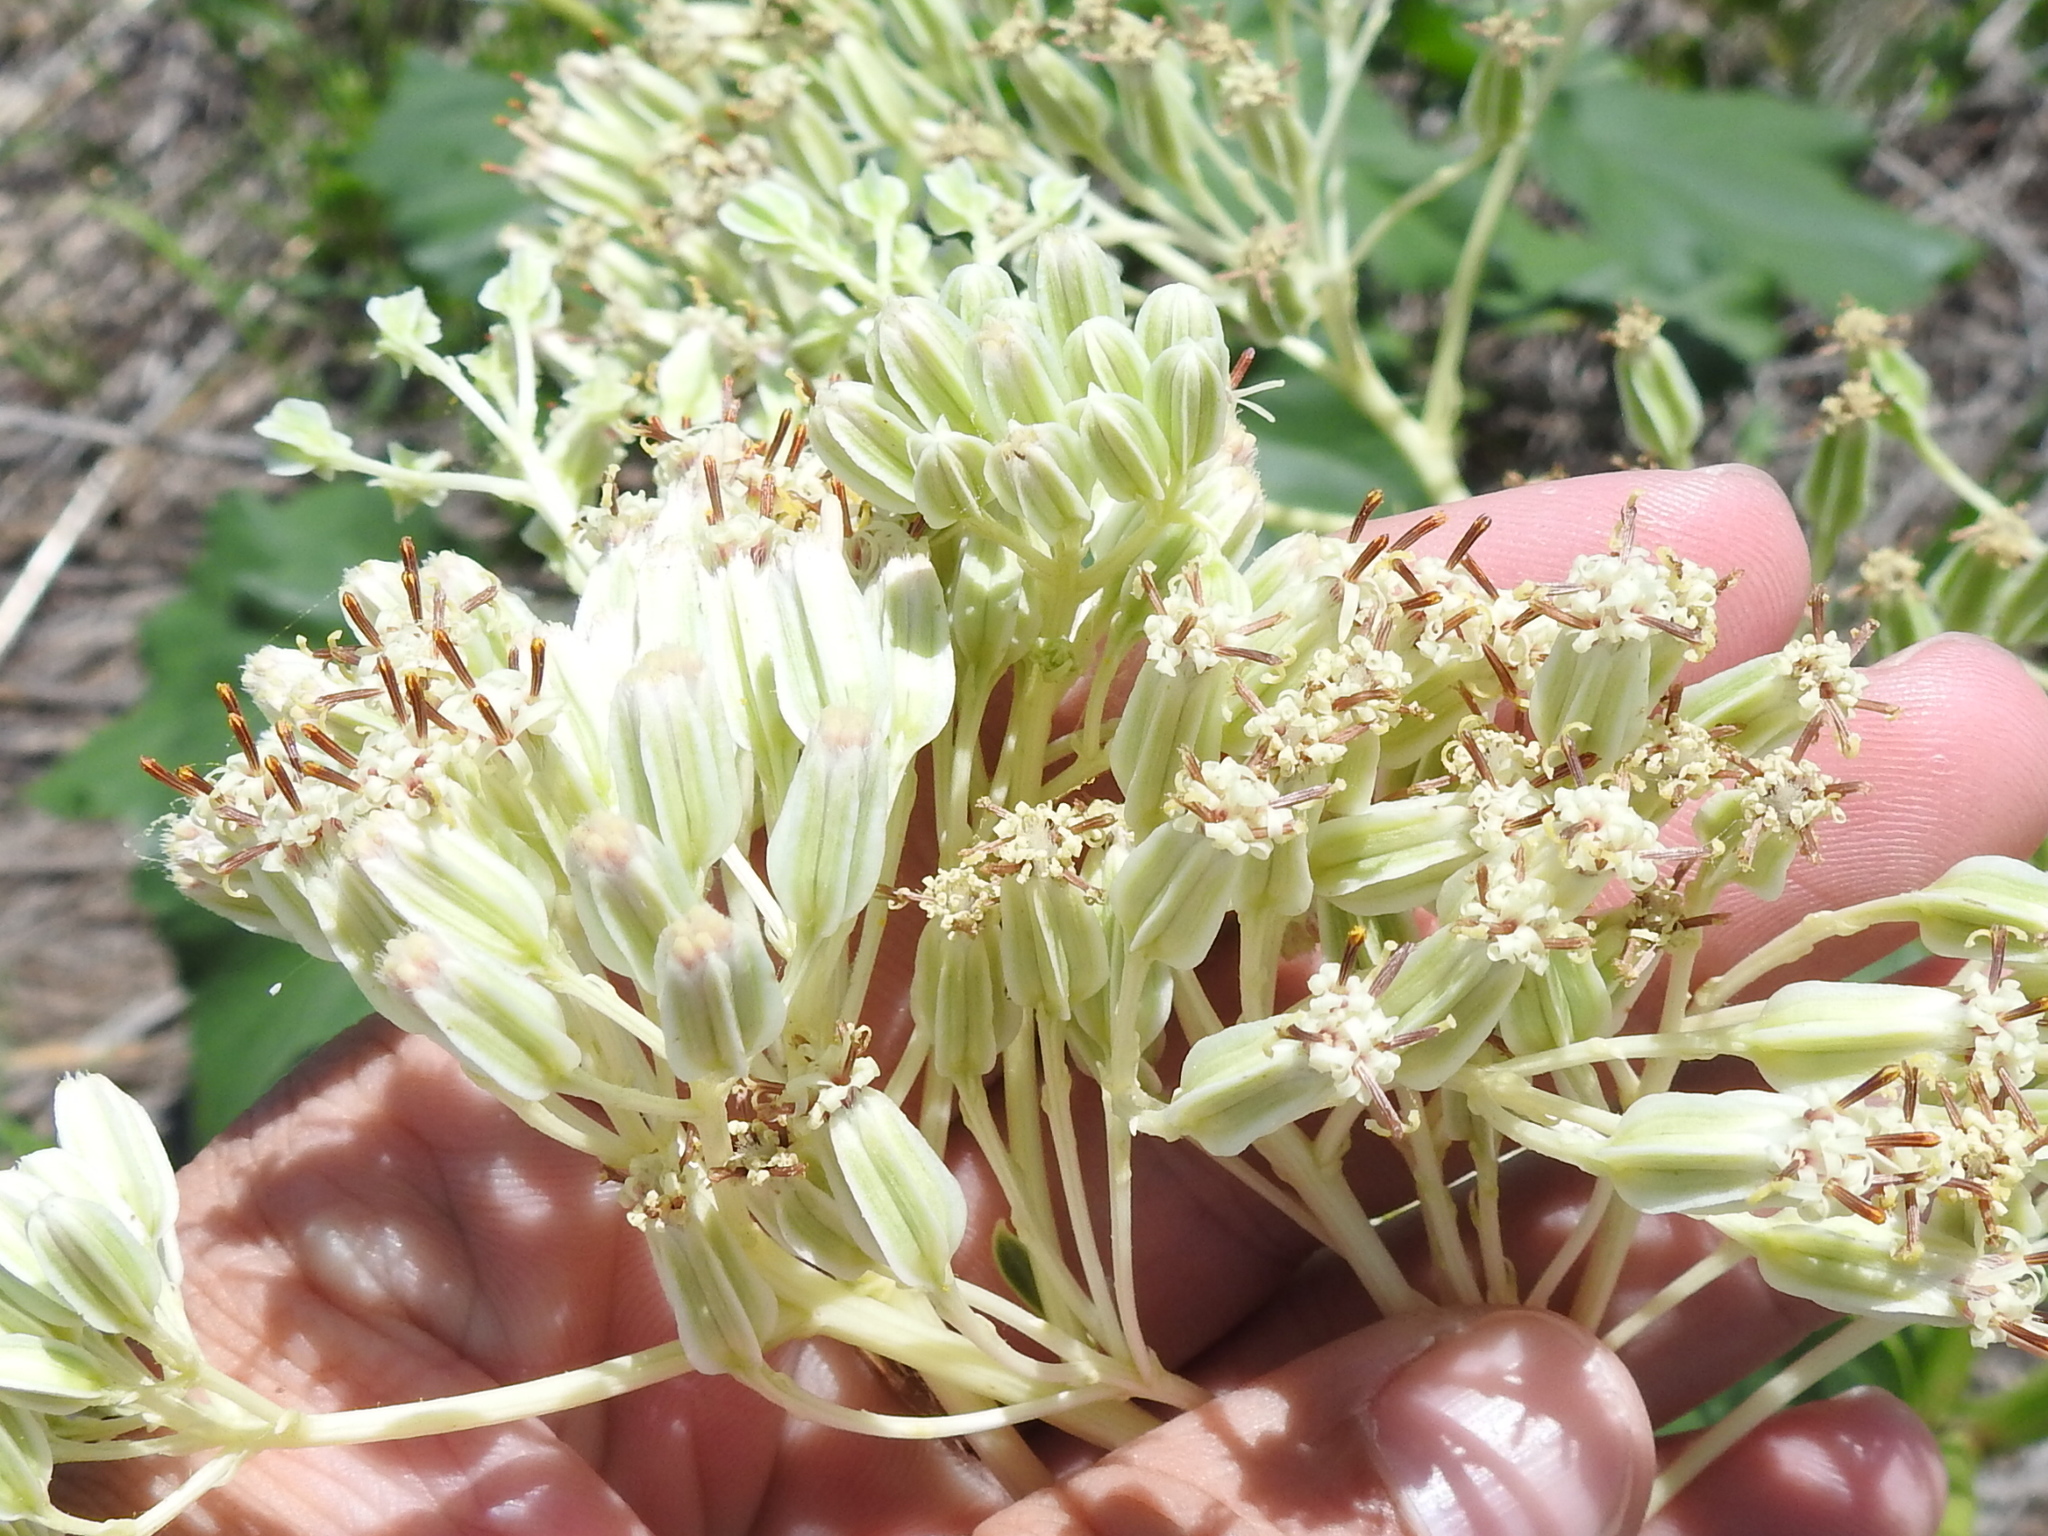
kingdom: Plantae
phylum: Tracheophyta
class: Magnoliopsida
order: Asterales
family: Asteraceae
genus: Arnoglossum
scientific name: Arnoglossum plantagineum
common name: Groove-stemmed indian-plantain
